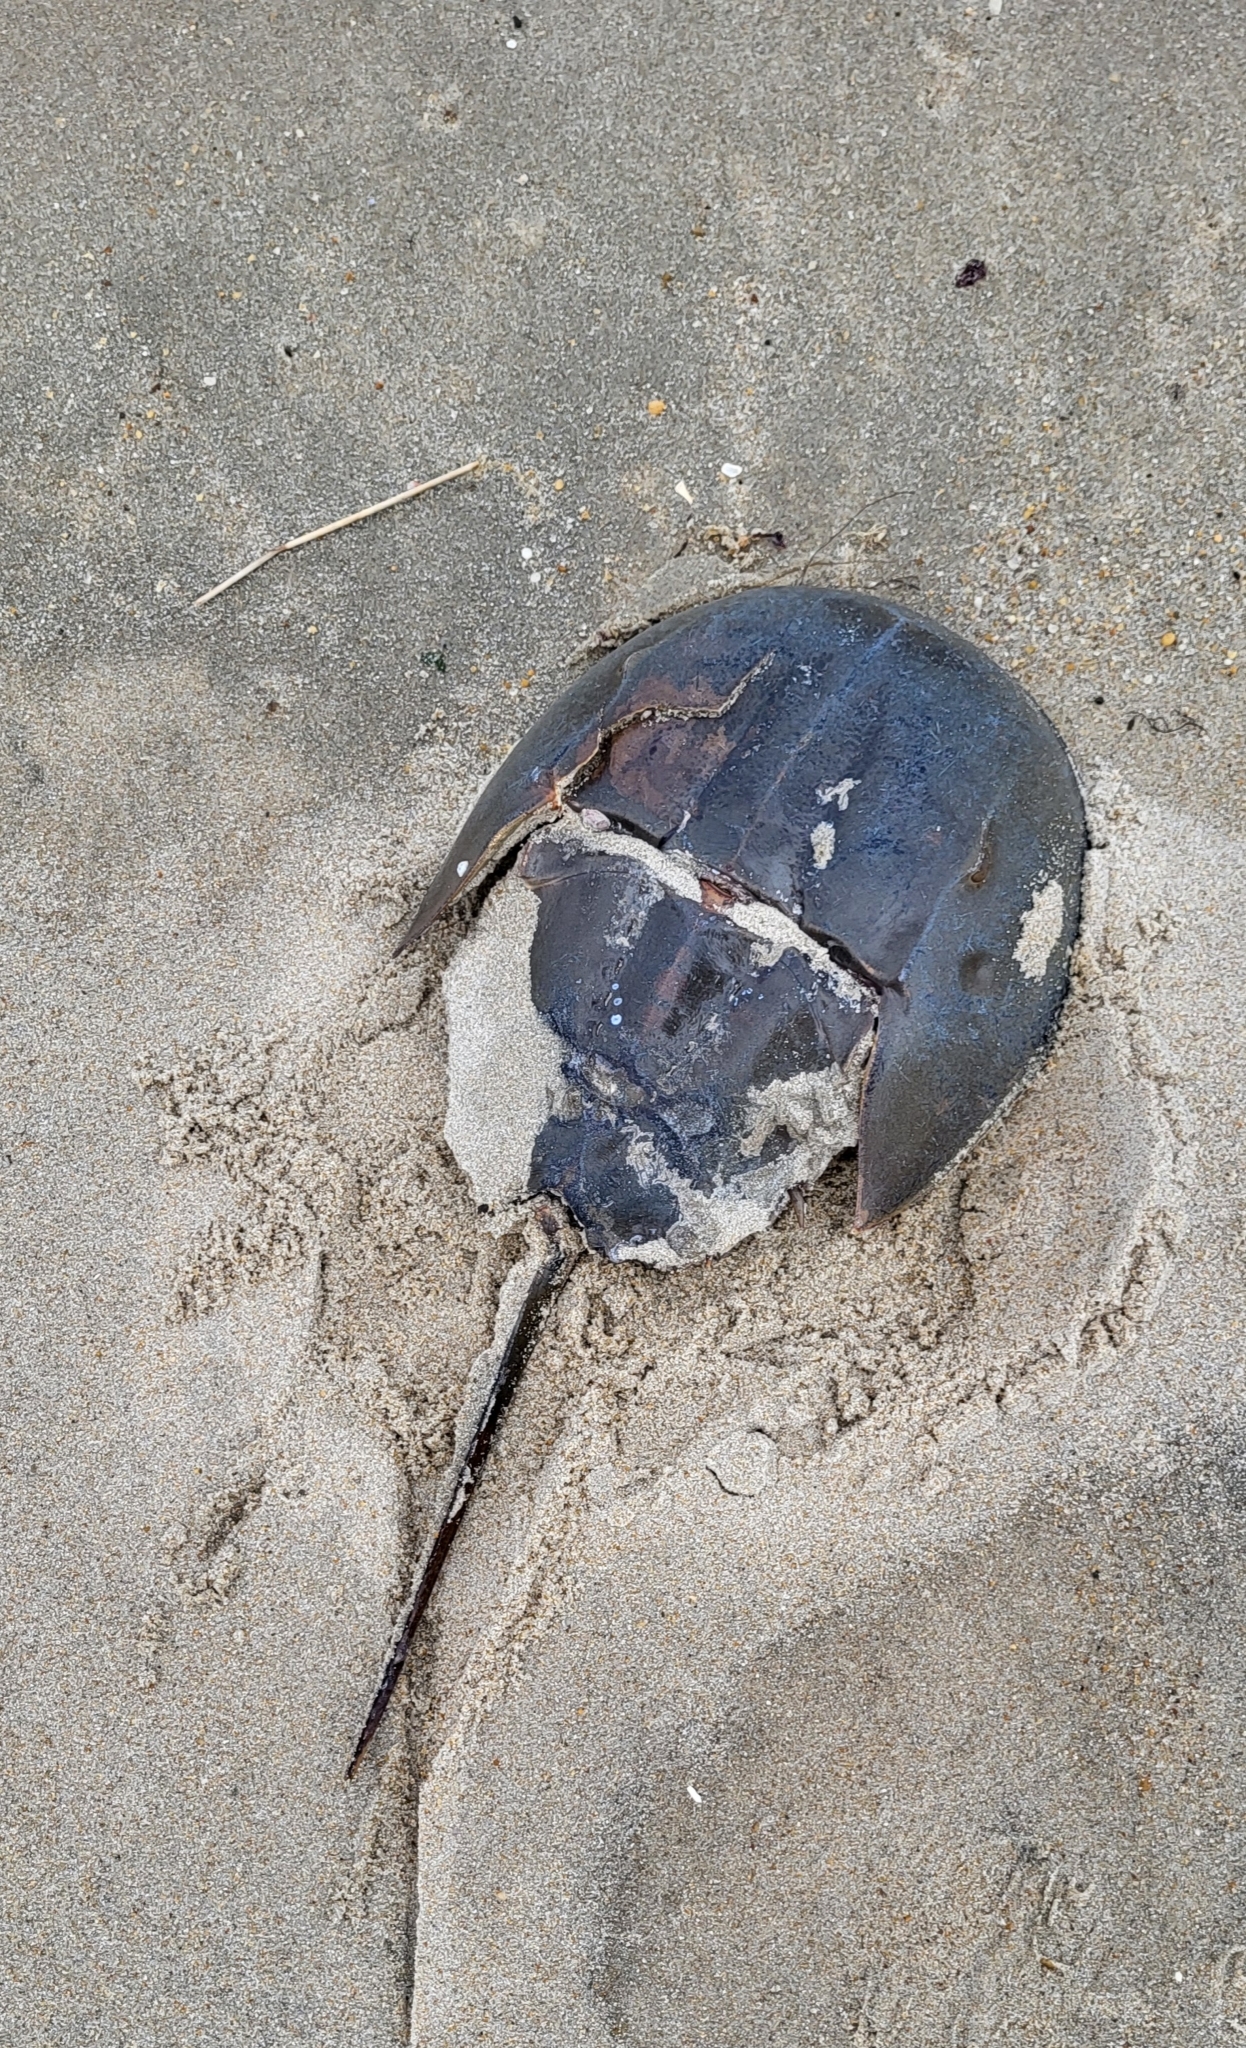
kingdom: Animalia
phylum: Arthropoda
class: Merostomata
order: Xiphosurida
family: Limulidae
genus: Limulus
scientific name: Limulus polyphemus
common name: Horseshoe crab
